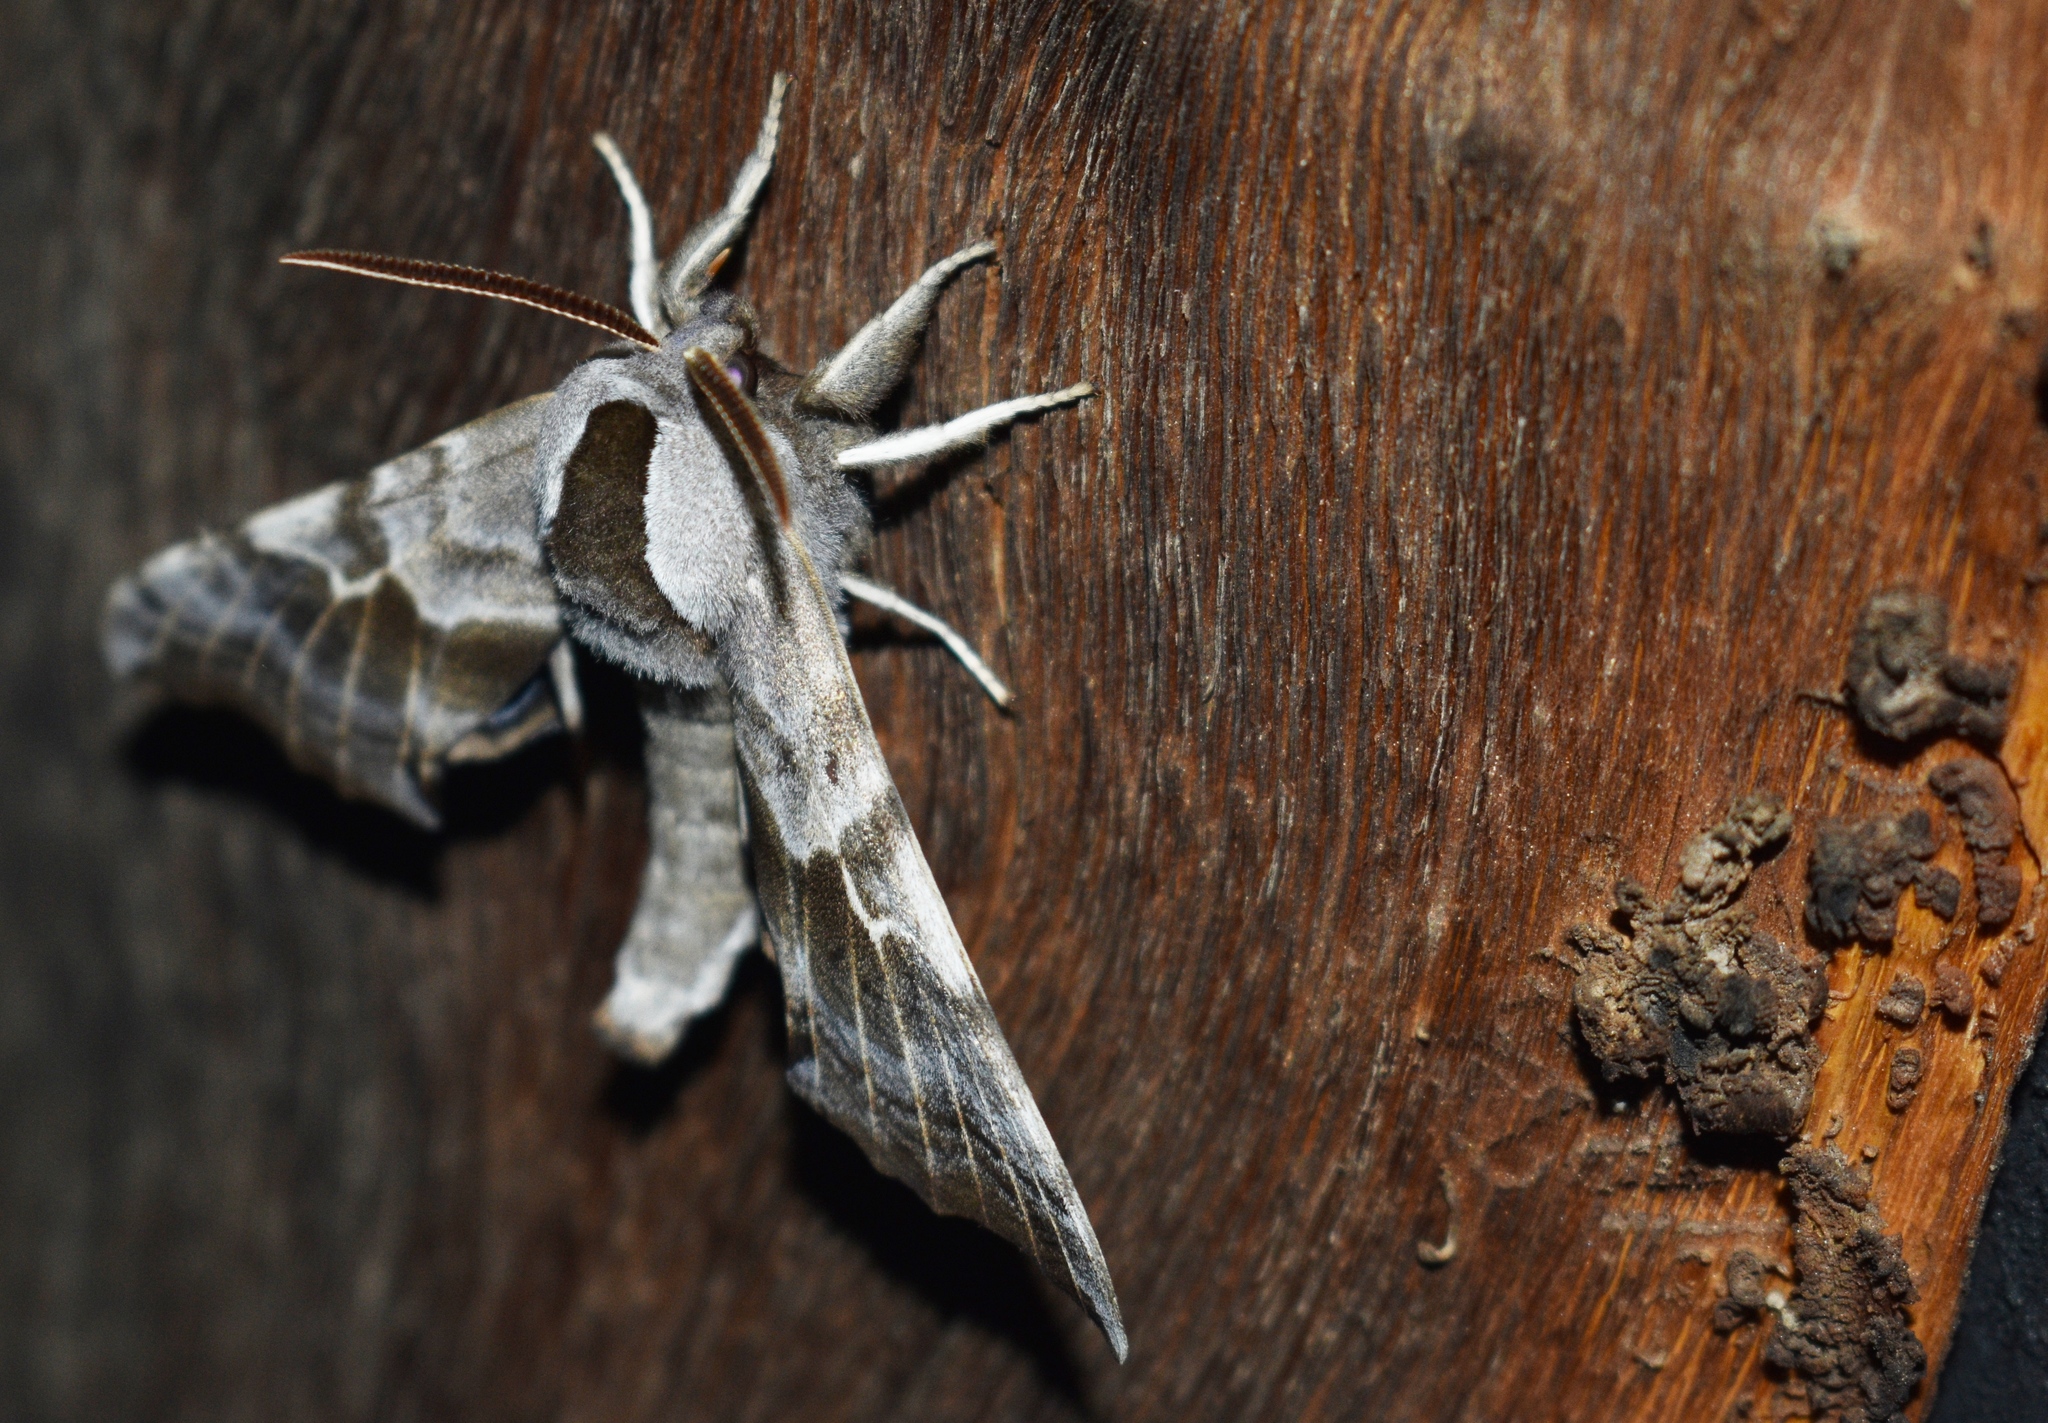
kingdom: Animalia
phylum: Arthropoda
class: Insecta
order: Lepidoptera
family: Sphingidae
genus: Smerinthus
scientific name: Smerinthus cerisyi
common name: Cerisy's sphinx moth
